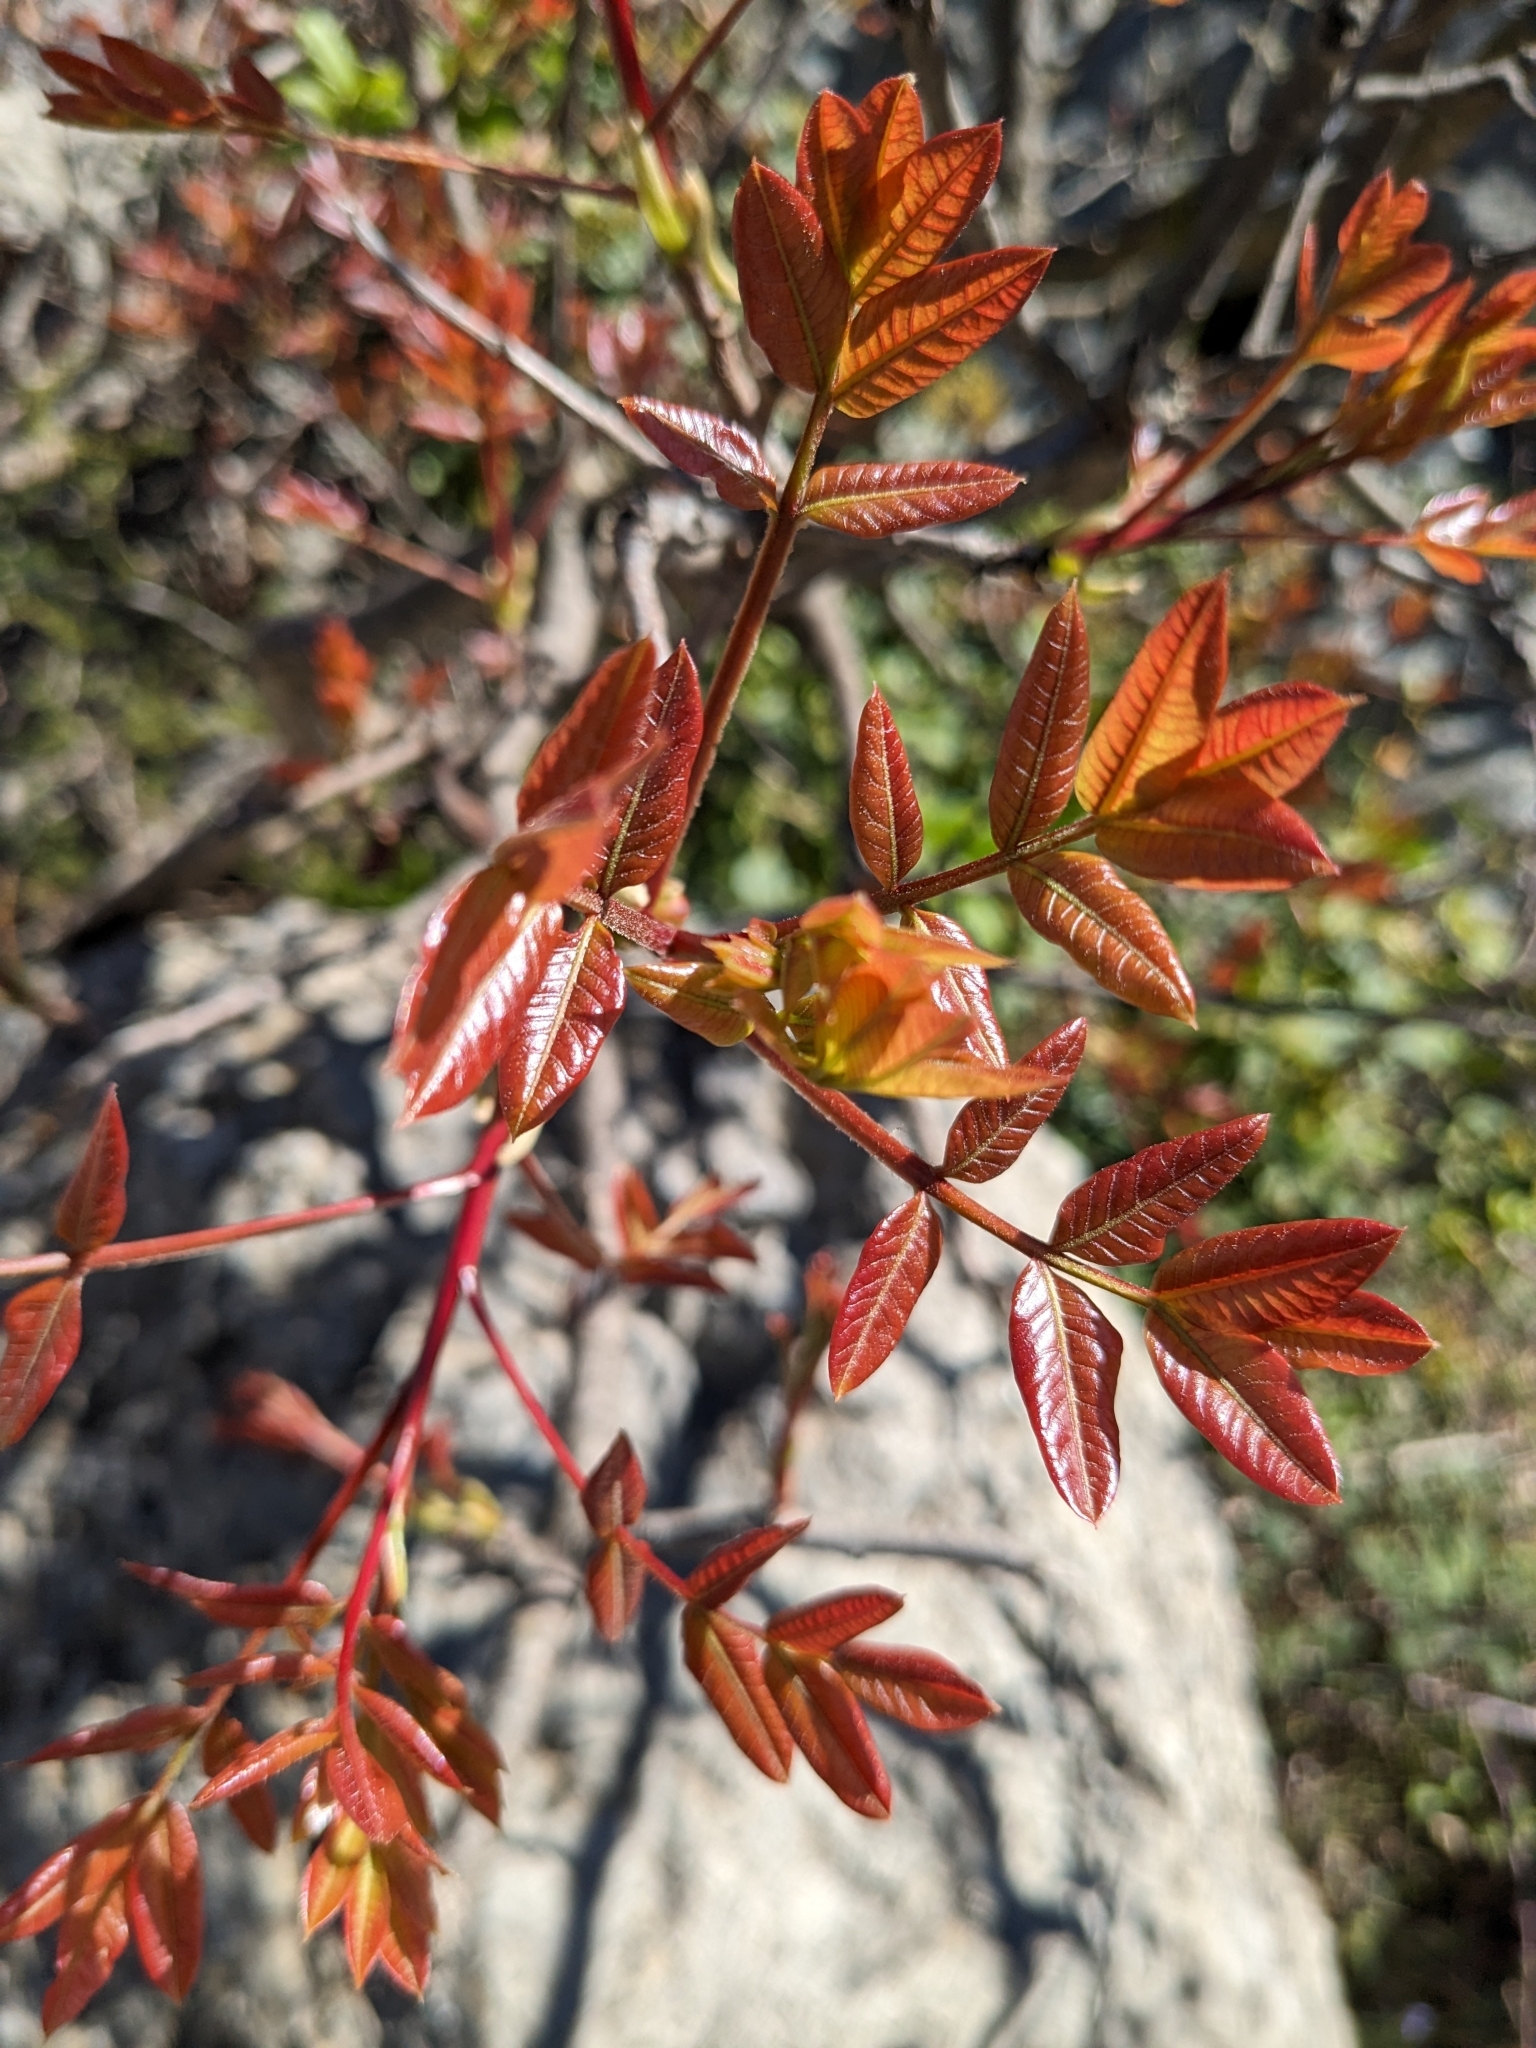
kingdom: Plantae
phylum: Tracheophyta
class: Magnoliopsida
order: Sapindales
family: Anacardiaceae
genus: Pistacia
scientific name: Pistacia terebinthus
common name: Terebinth
